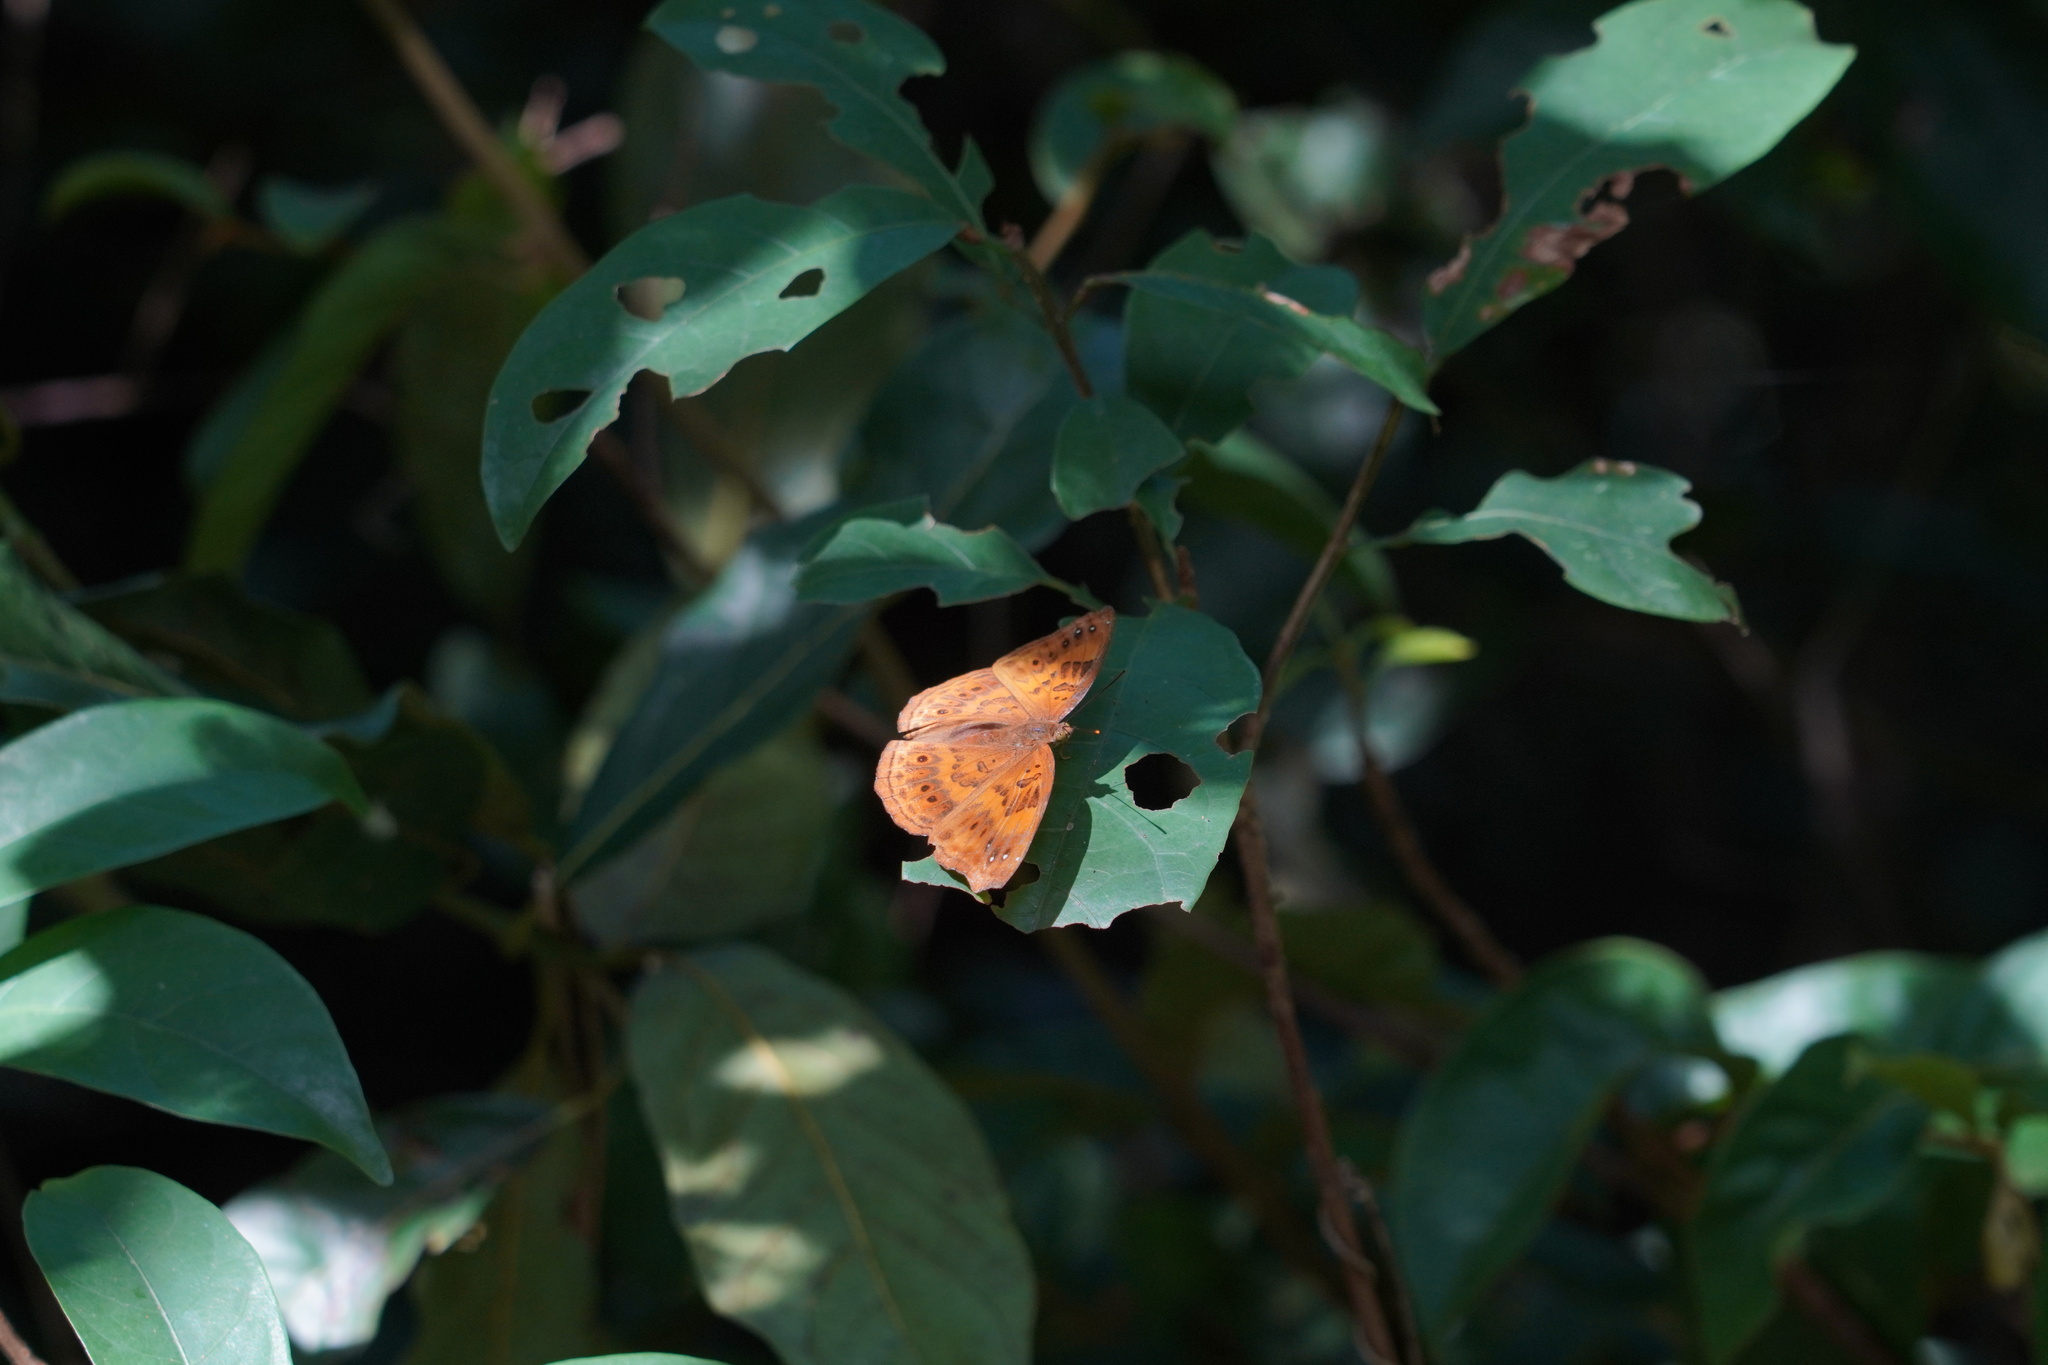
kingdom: Animalia
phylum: Arthropoda
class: Insecta
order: Lepidoptera
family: Nymphalidae
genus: Apatura
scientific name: Apatura Rohana spec
